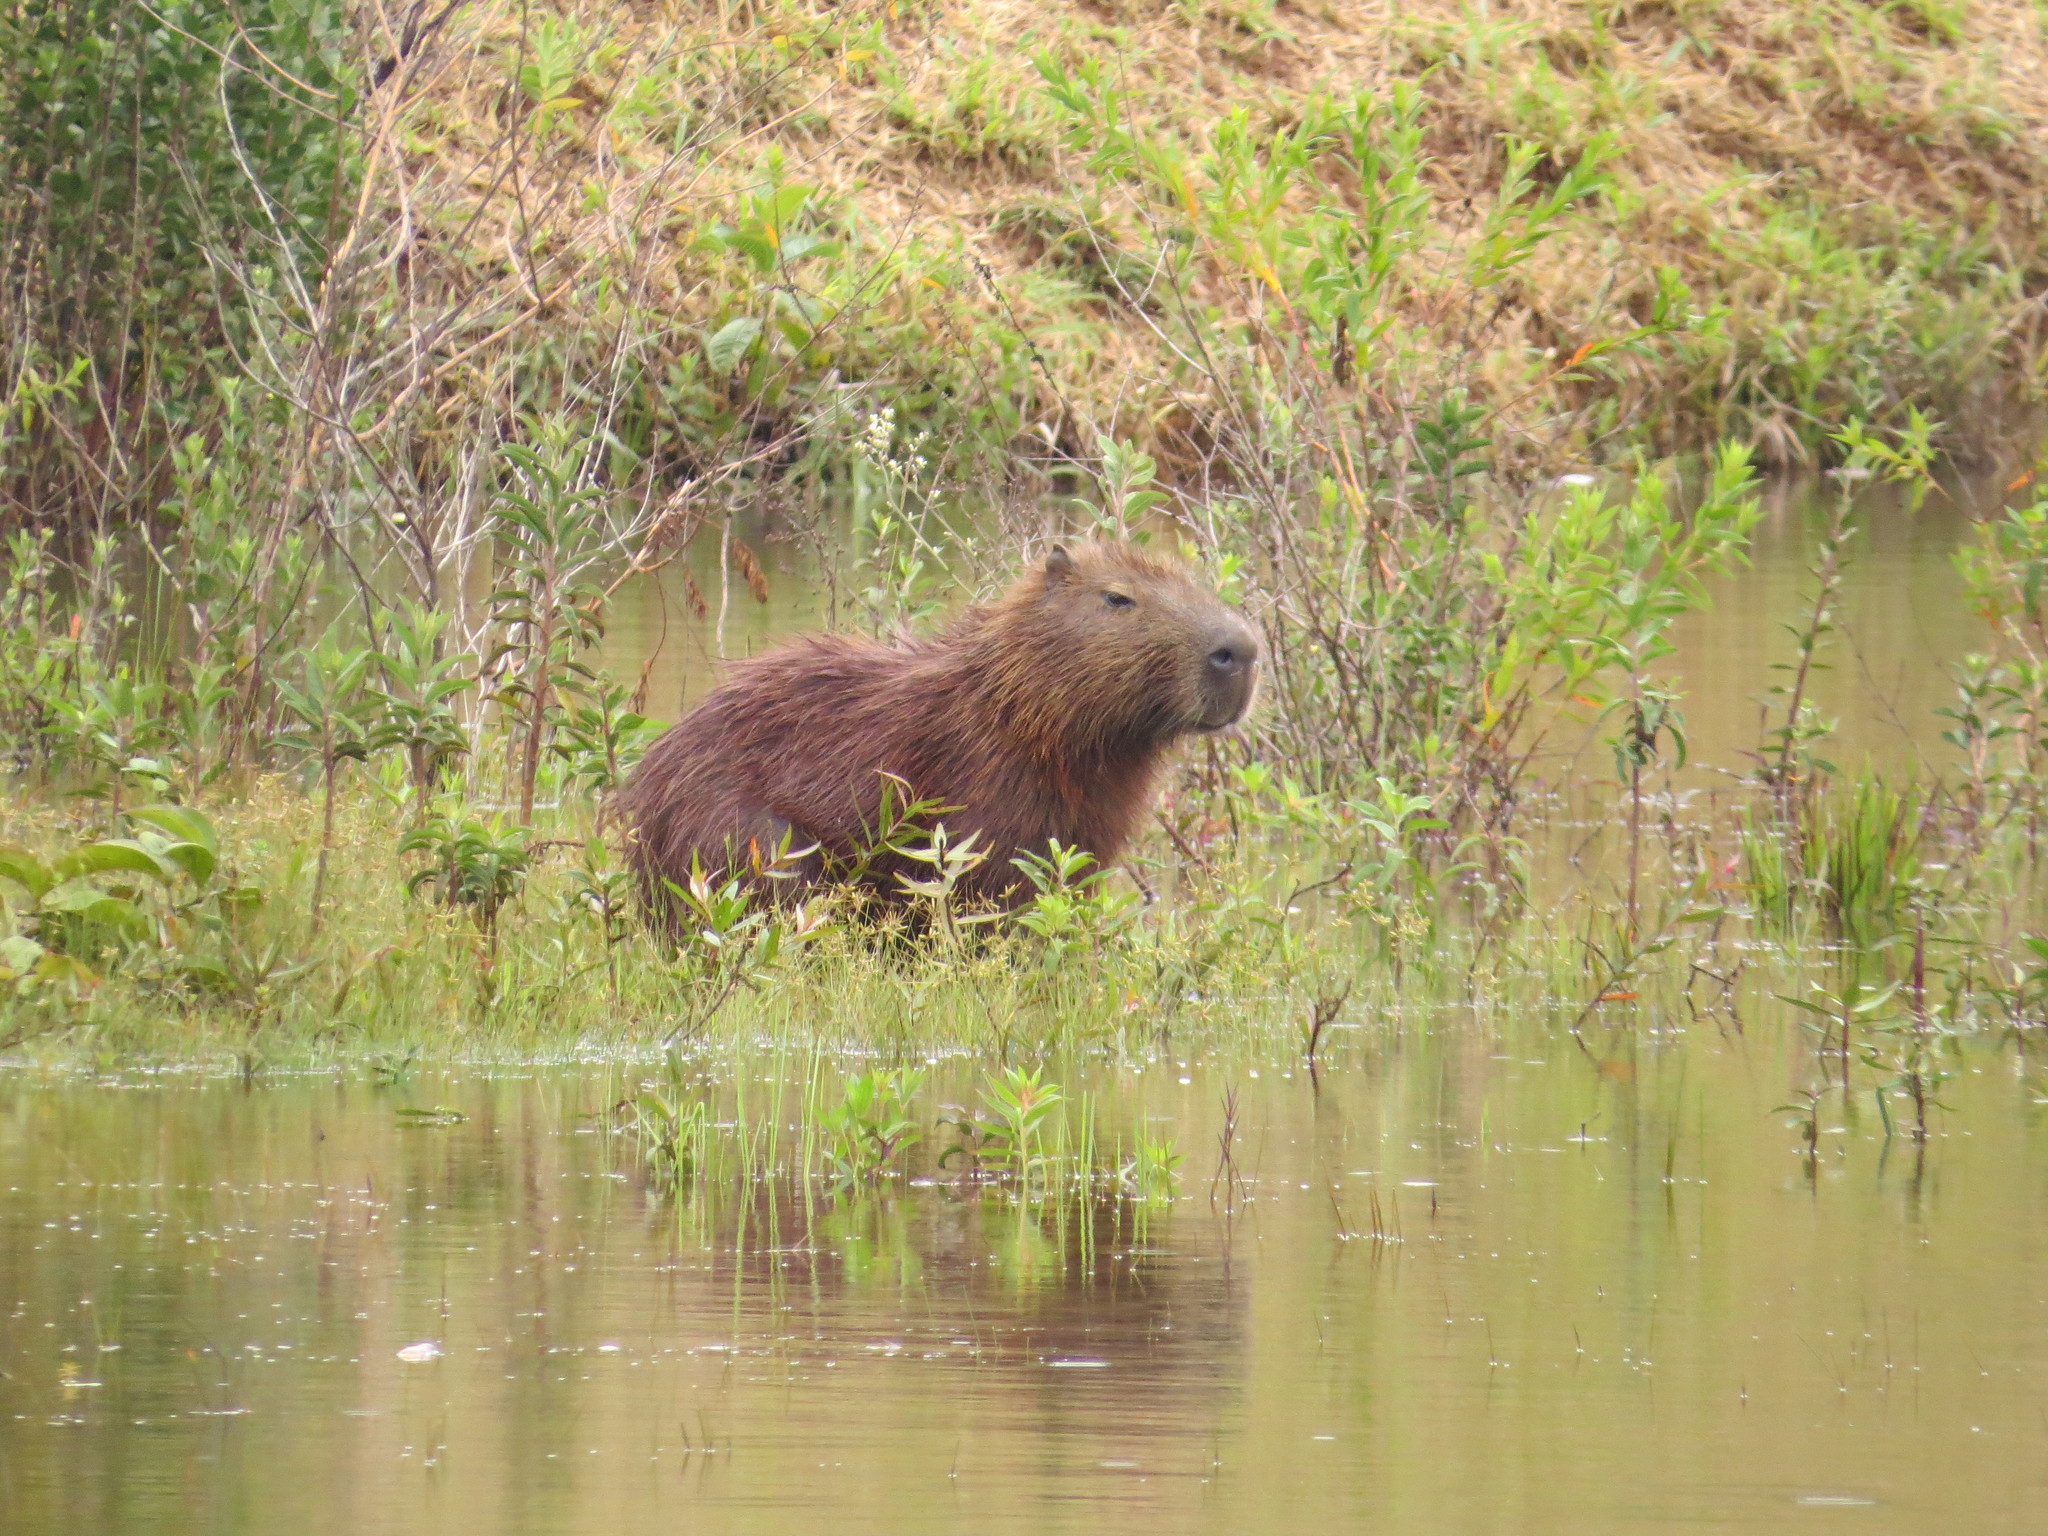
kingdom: Animalia
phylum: Chordata
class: Mammalia
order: Rodentia
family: Caviidae
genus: Hydrochoerus
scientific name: Hydrochoerus hydrochaeris
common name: Capybara
